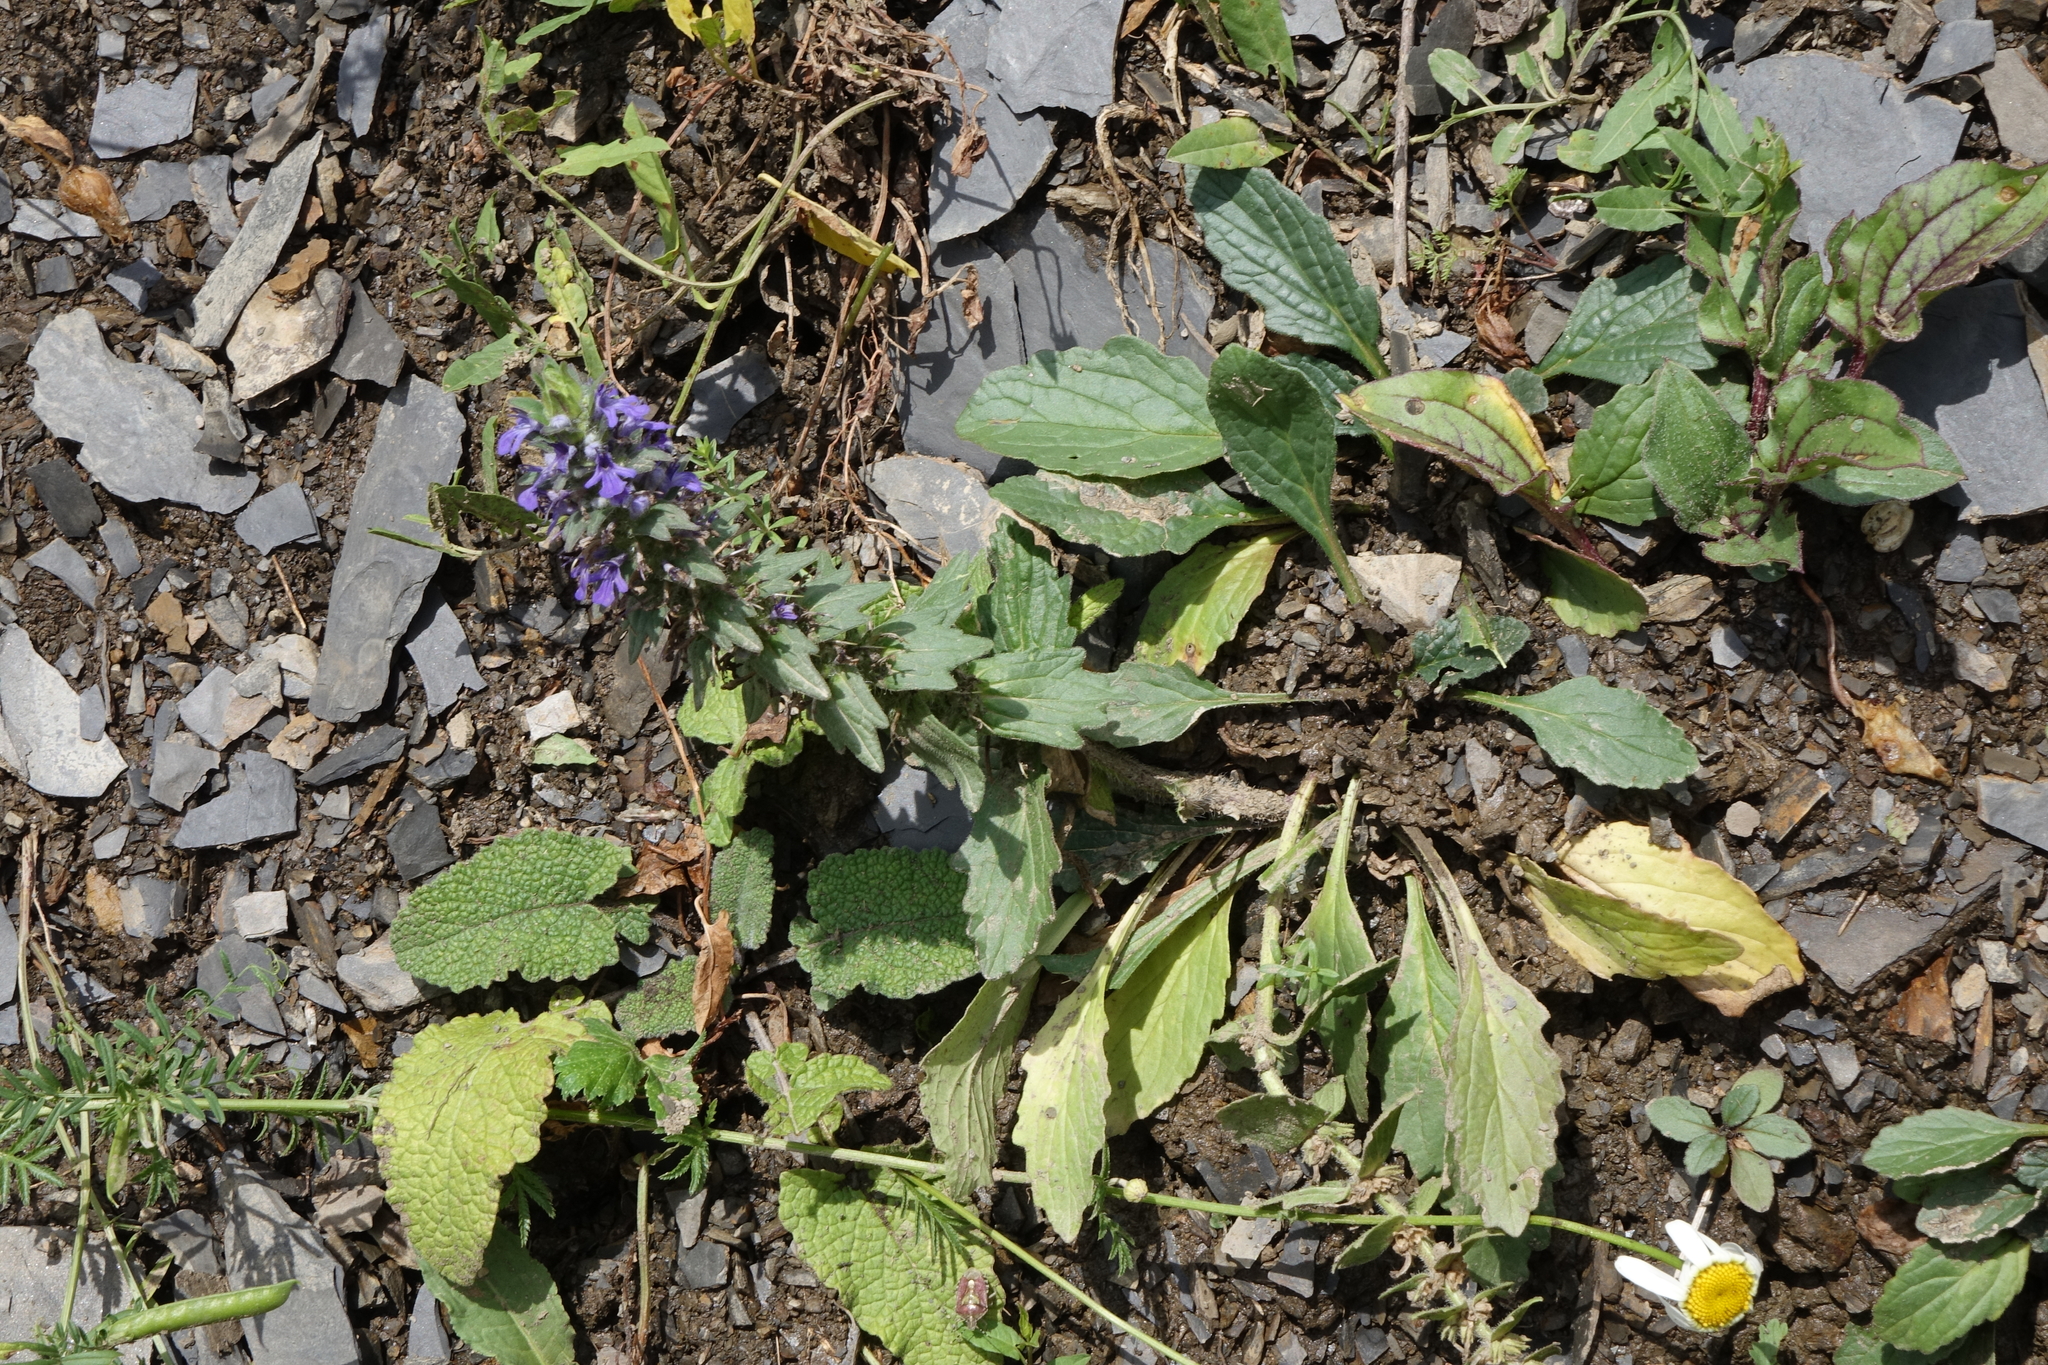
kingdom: Plantae
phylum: Tracheophyta
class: Magnoliopsida
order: Lamiales
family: Lamiaceae
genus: Ajuga
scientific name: Ajuga genevensis
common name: Blue bugle
